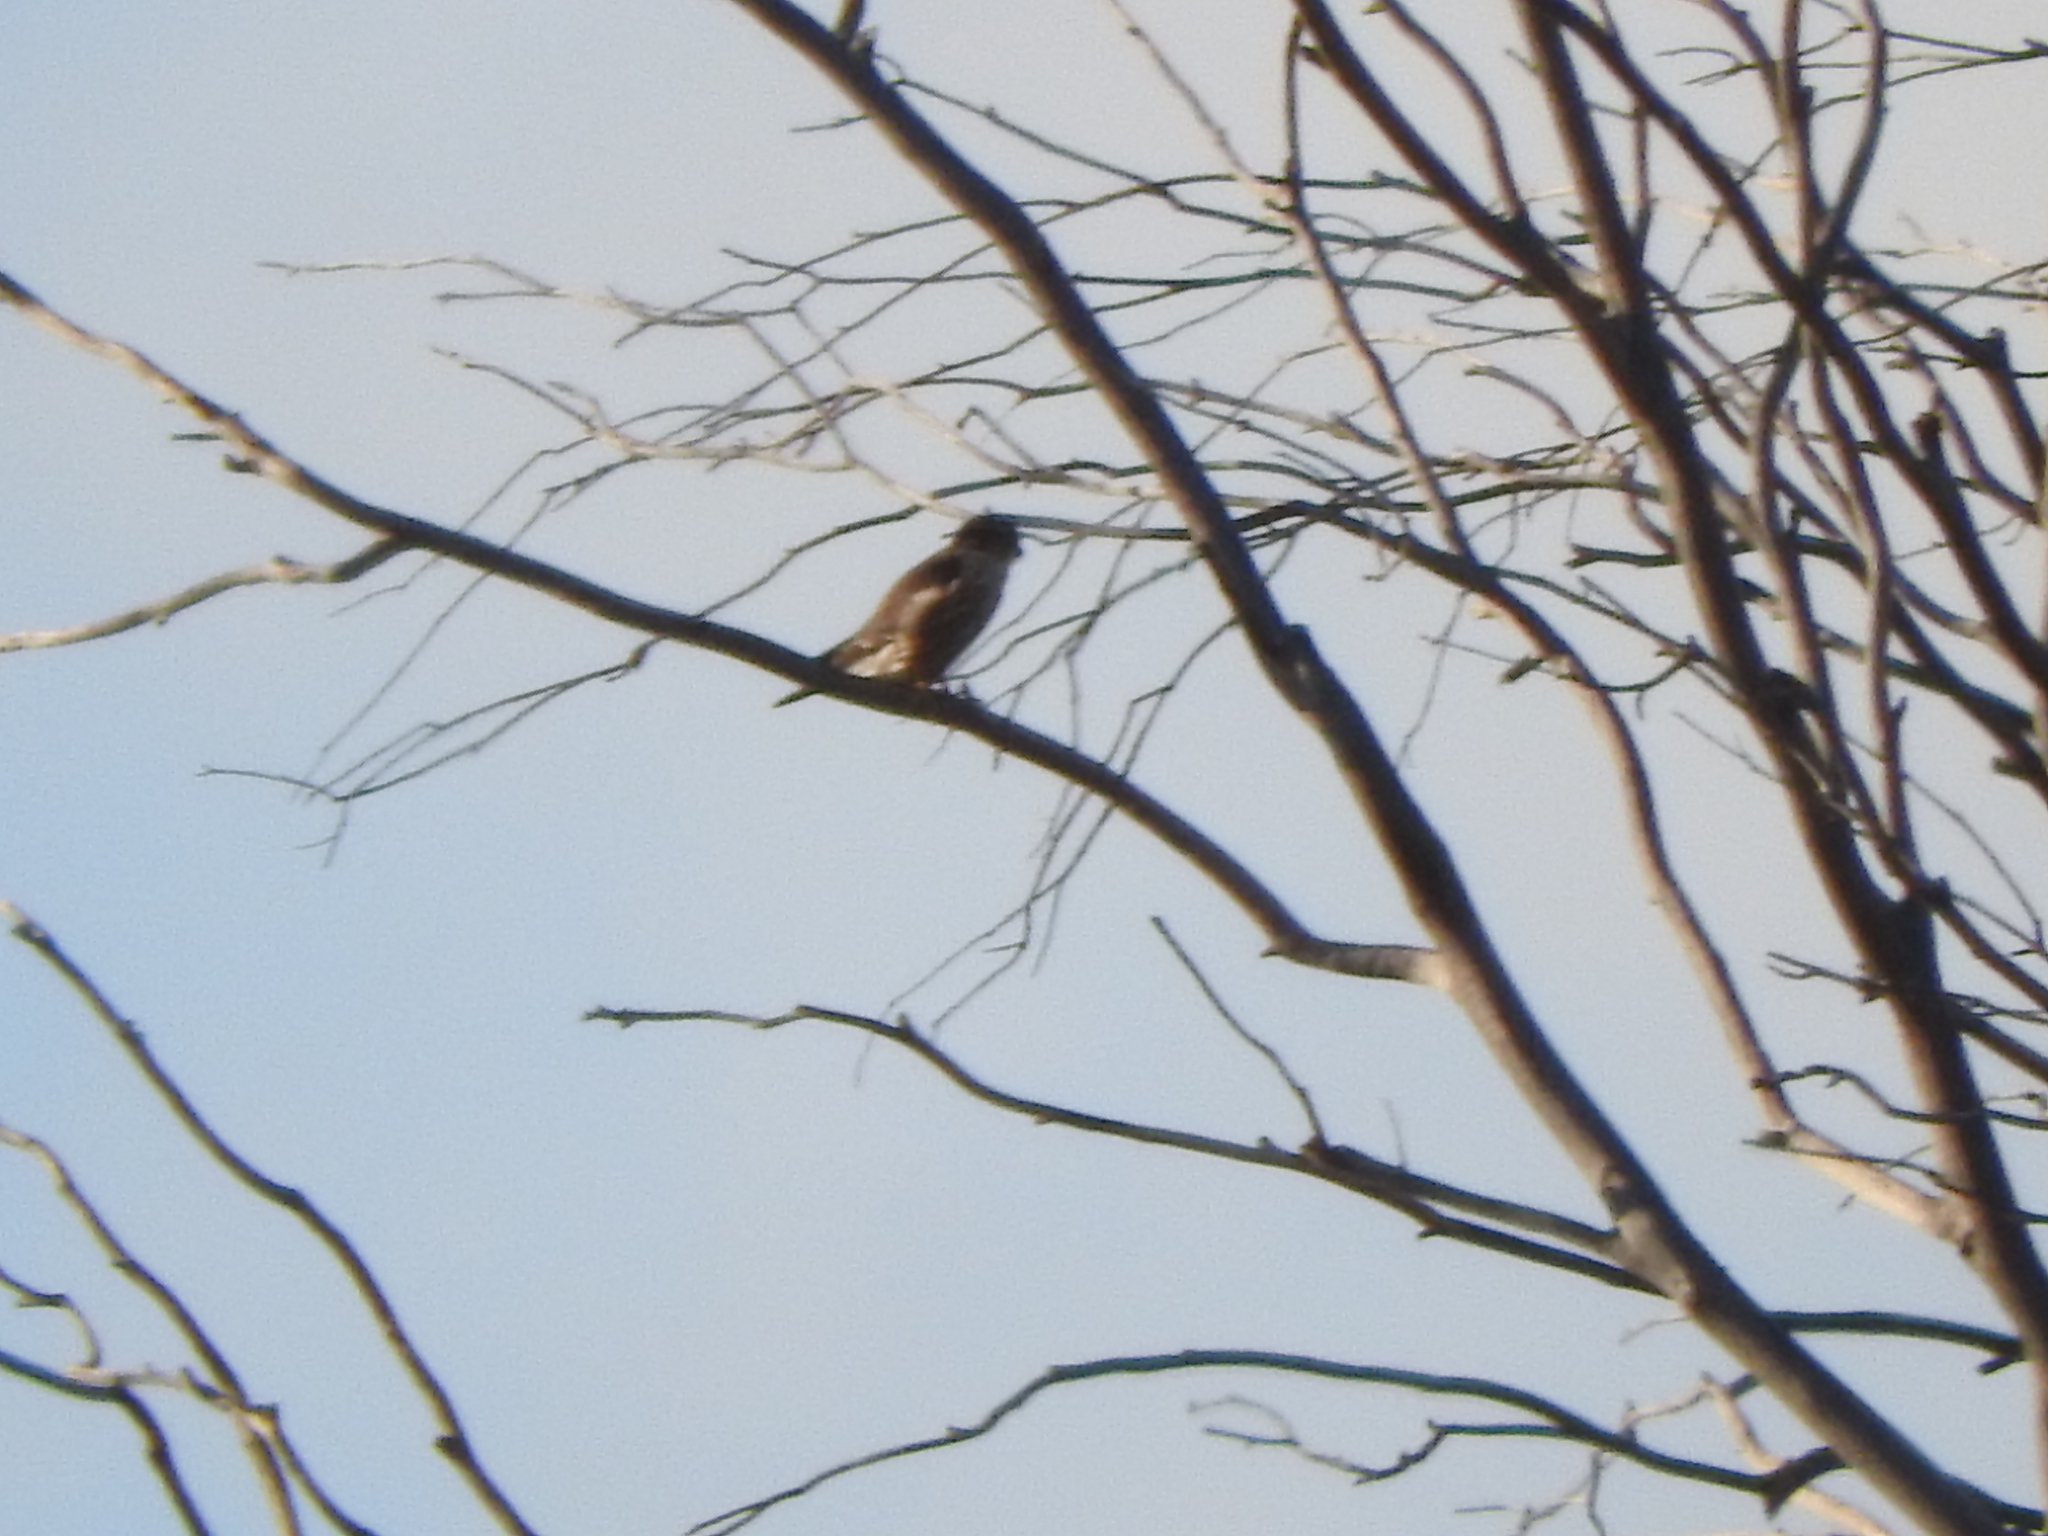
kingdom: Animalia
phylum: Chordata
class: Aves
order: Falconiformes
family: Falconidae
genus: Falco
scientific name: Falco columbarius
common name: Merlin
